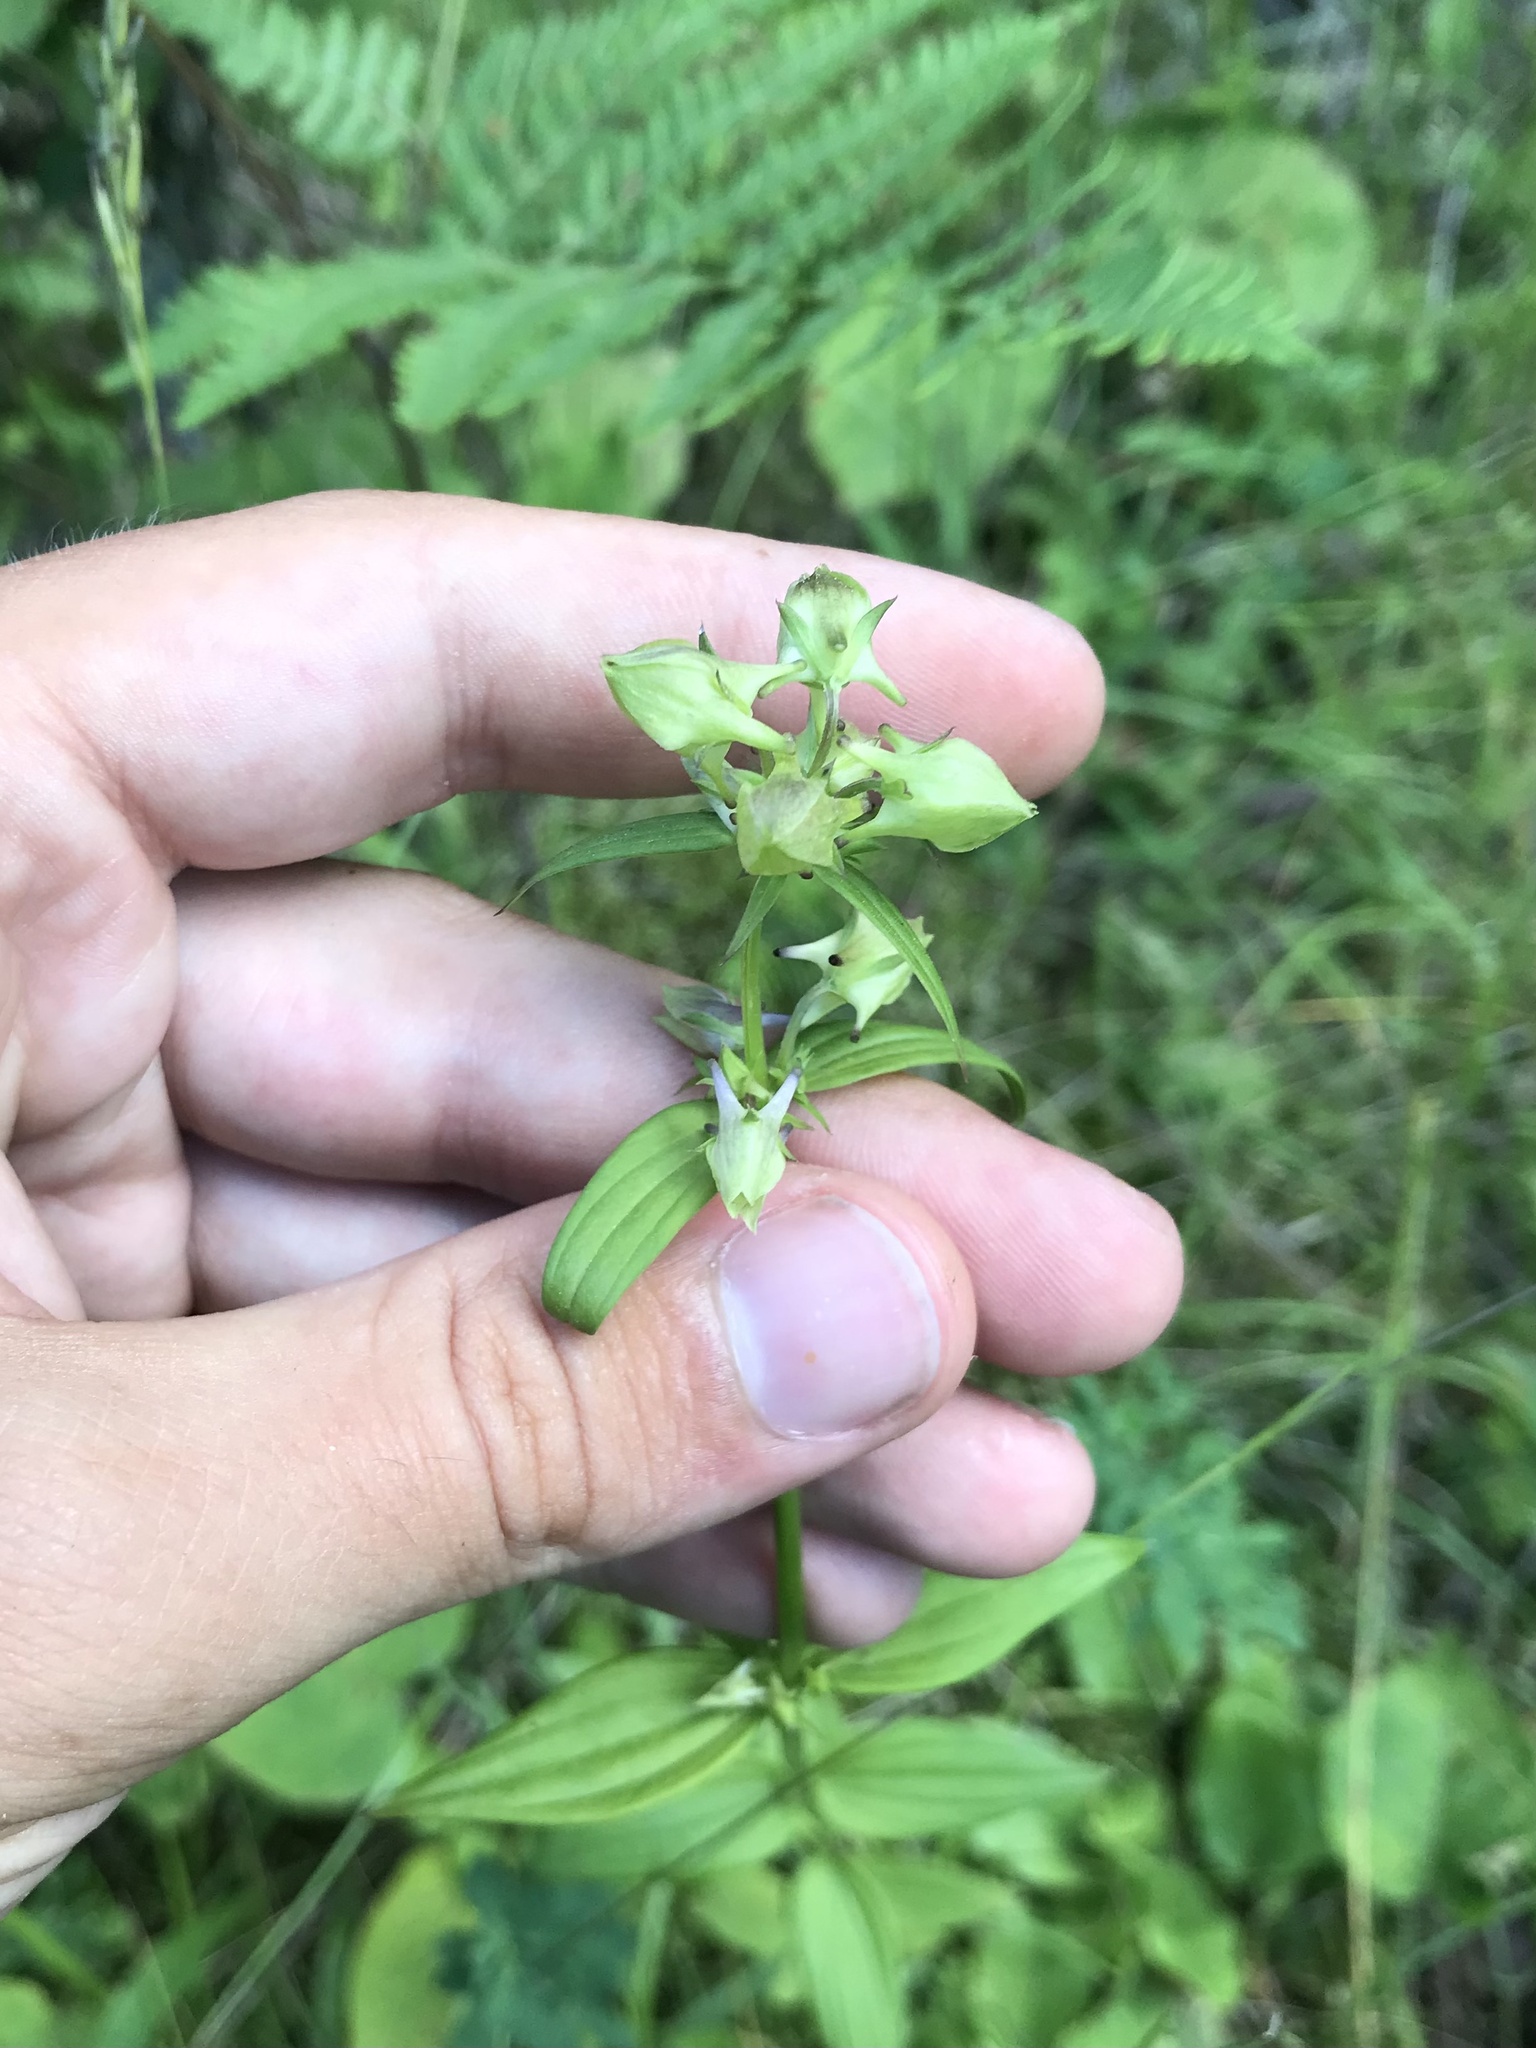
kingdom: Plantae
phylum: Tracheophyta
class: Magnoliopsida
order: Gentianales
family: Gentianaceae
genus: Halenia
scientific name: Halenia deflexa
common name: American spurred gentian
